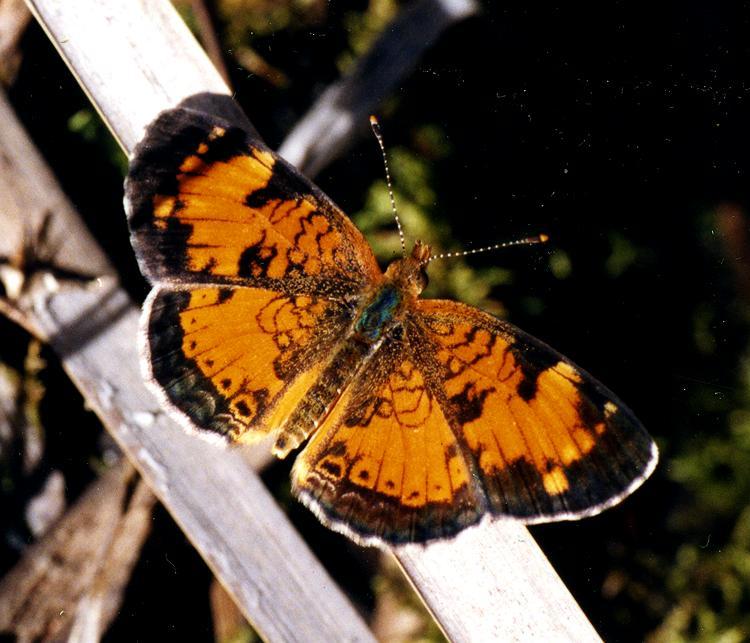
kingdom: Animalia
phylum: Arthropoda
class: Insecta
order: Lepidoptera
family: Nymphalidae
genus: Phyciodes
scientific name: Phyciodes tharos
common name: Pearl crescent
